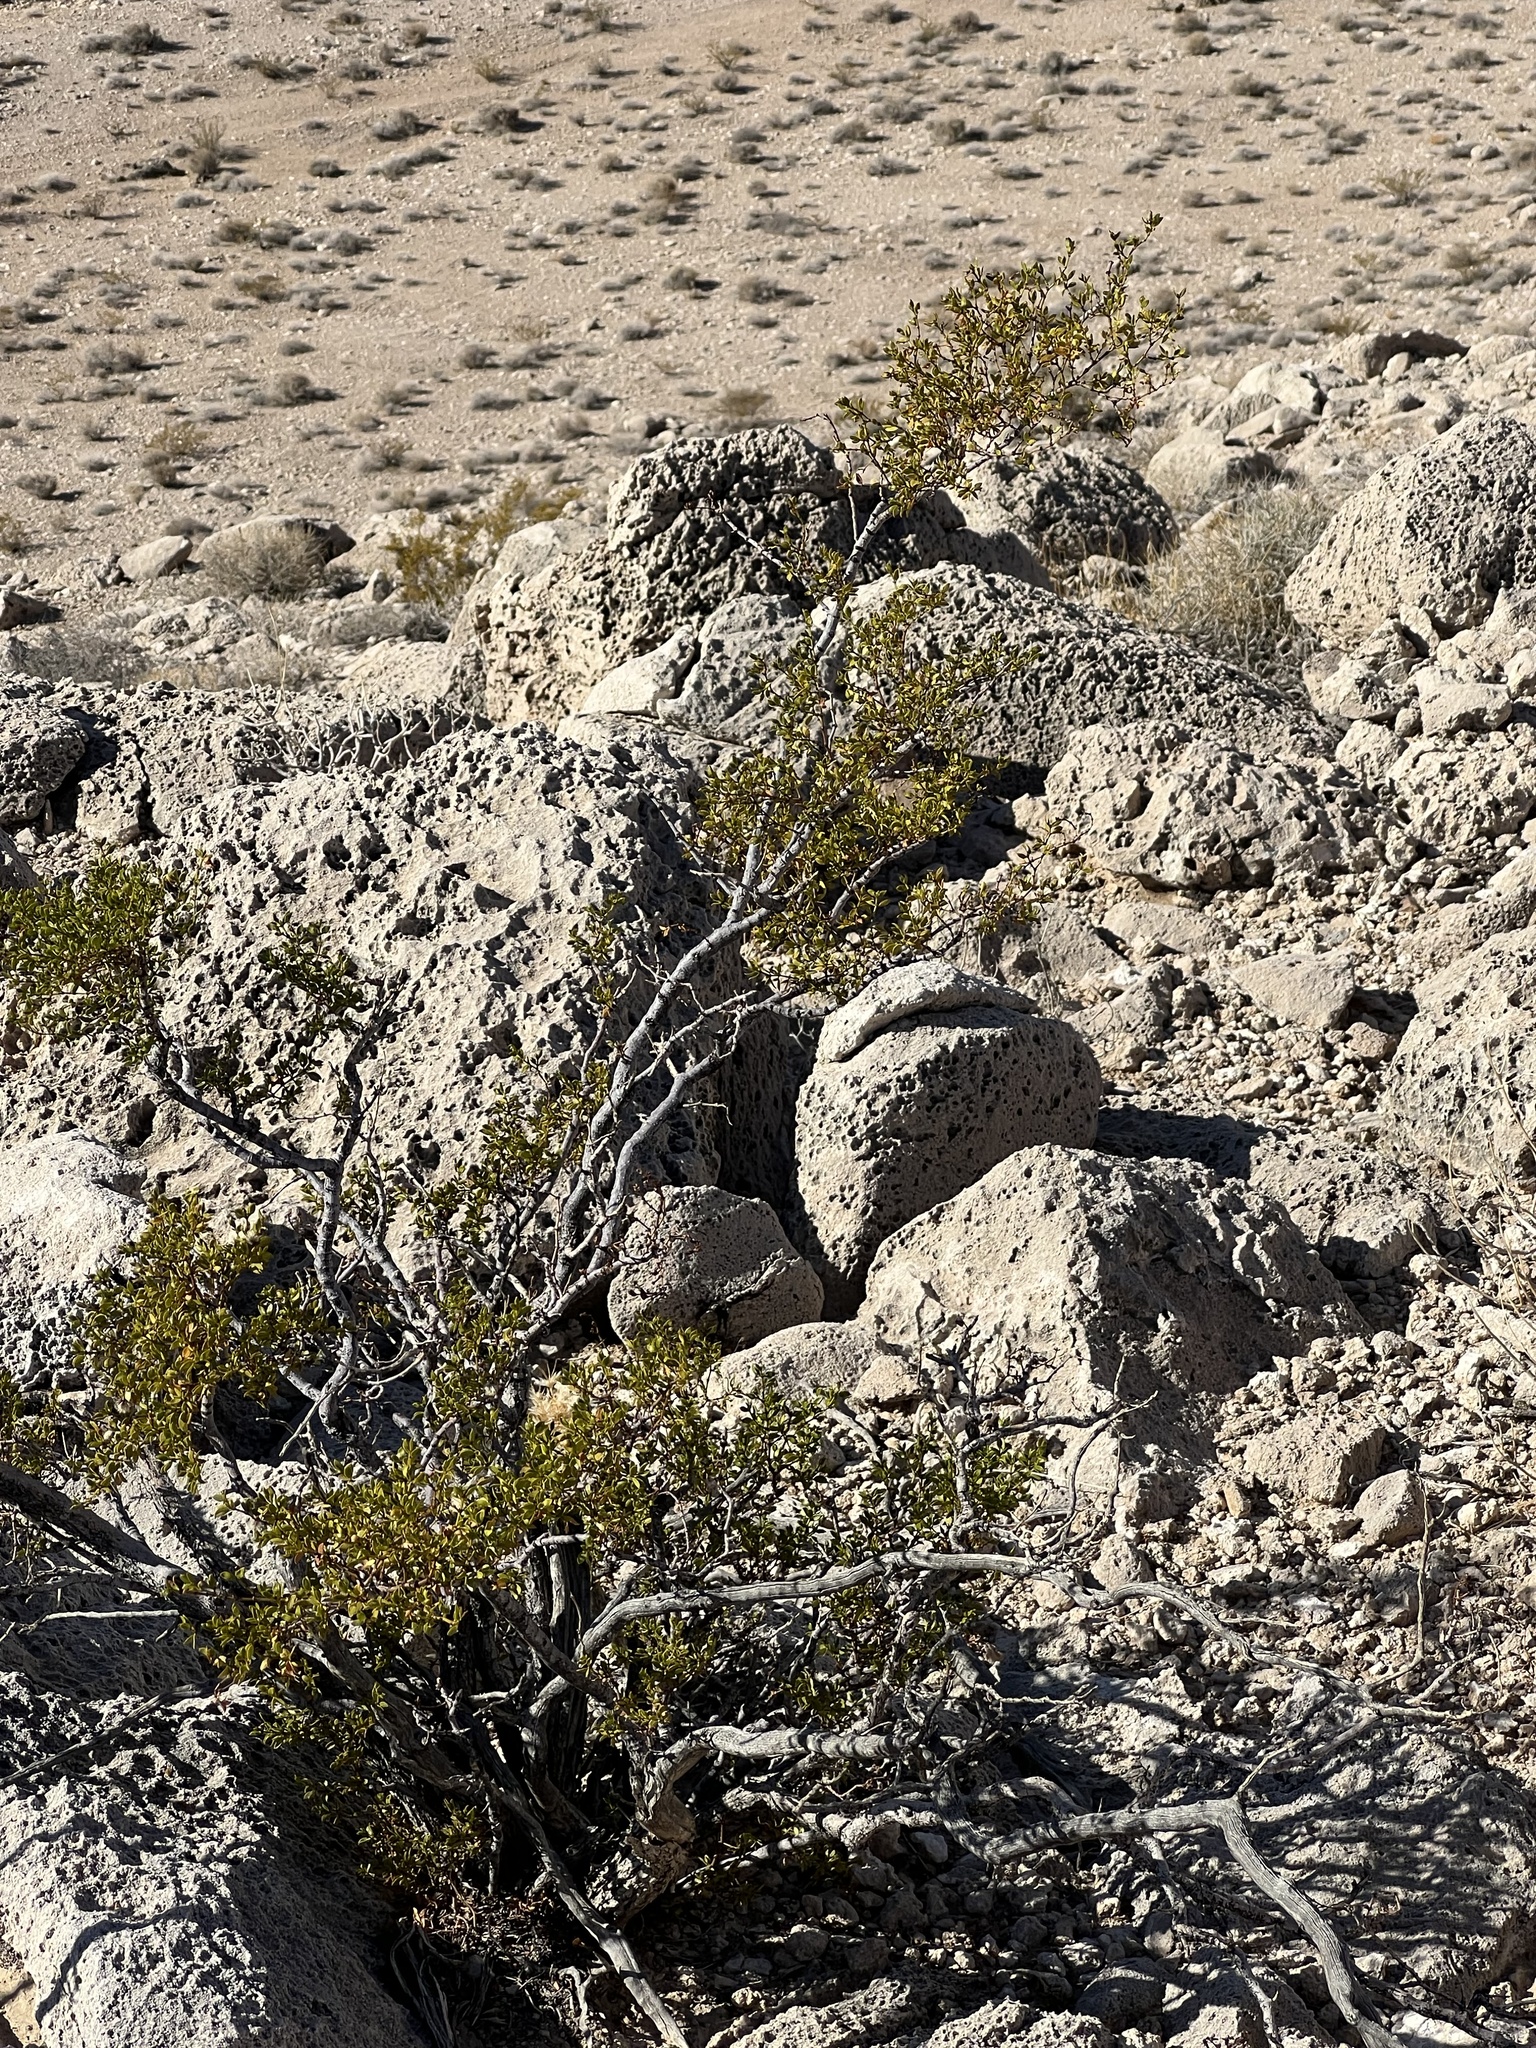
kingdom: Plantae
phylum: Tracheophyta
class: Magnoliopsida
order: Zygophyllales
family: Zygophyllaceae
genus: Larrea
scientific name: Larrea tridentata
